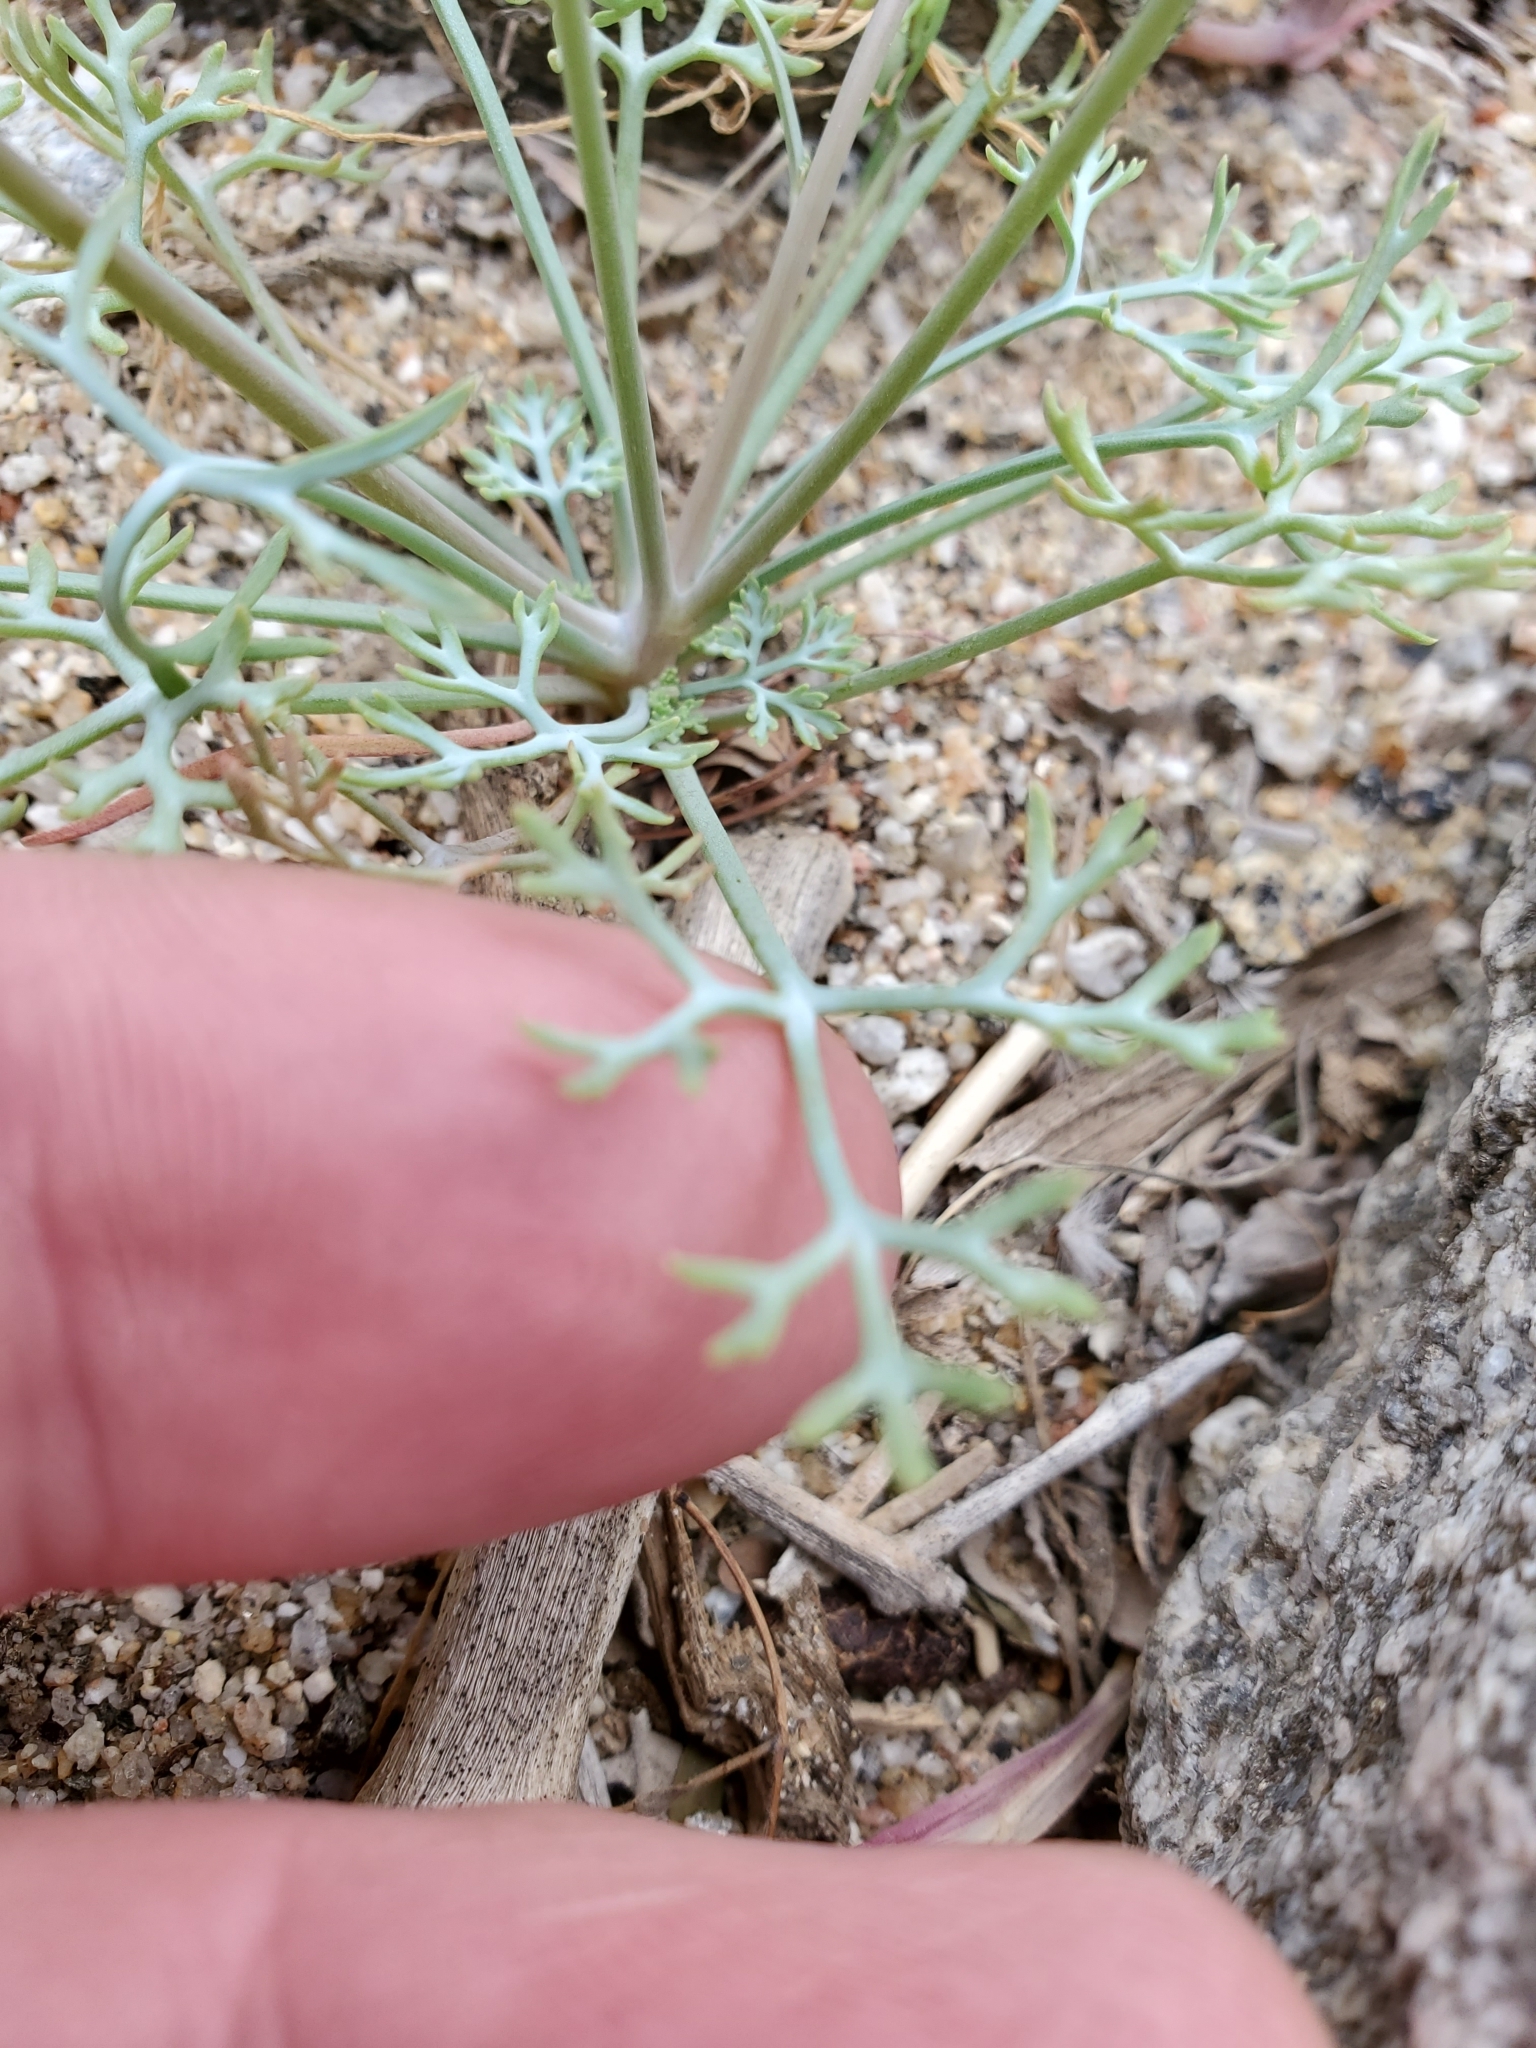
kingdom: Plantae
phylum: Tracheophyta
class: Magnoliopsida
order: Ranunculales
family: Papaveraceae
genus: Eschscholzia
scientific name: Eschscholzia parishii
